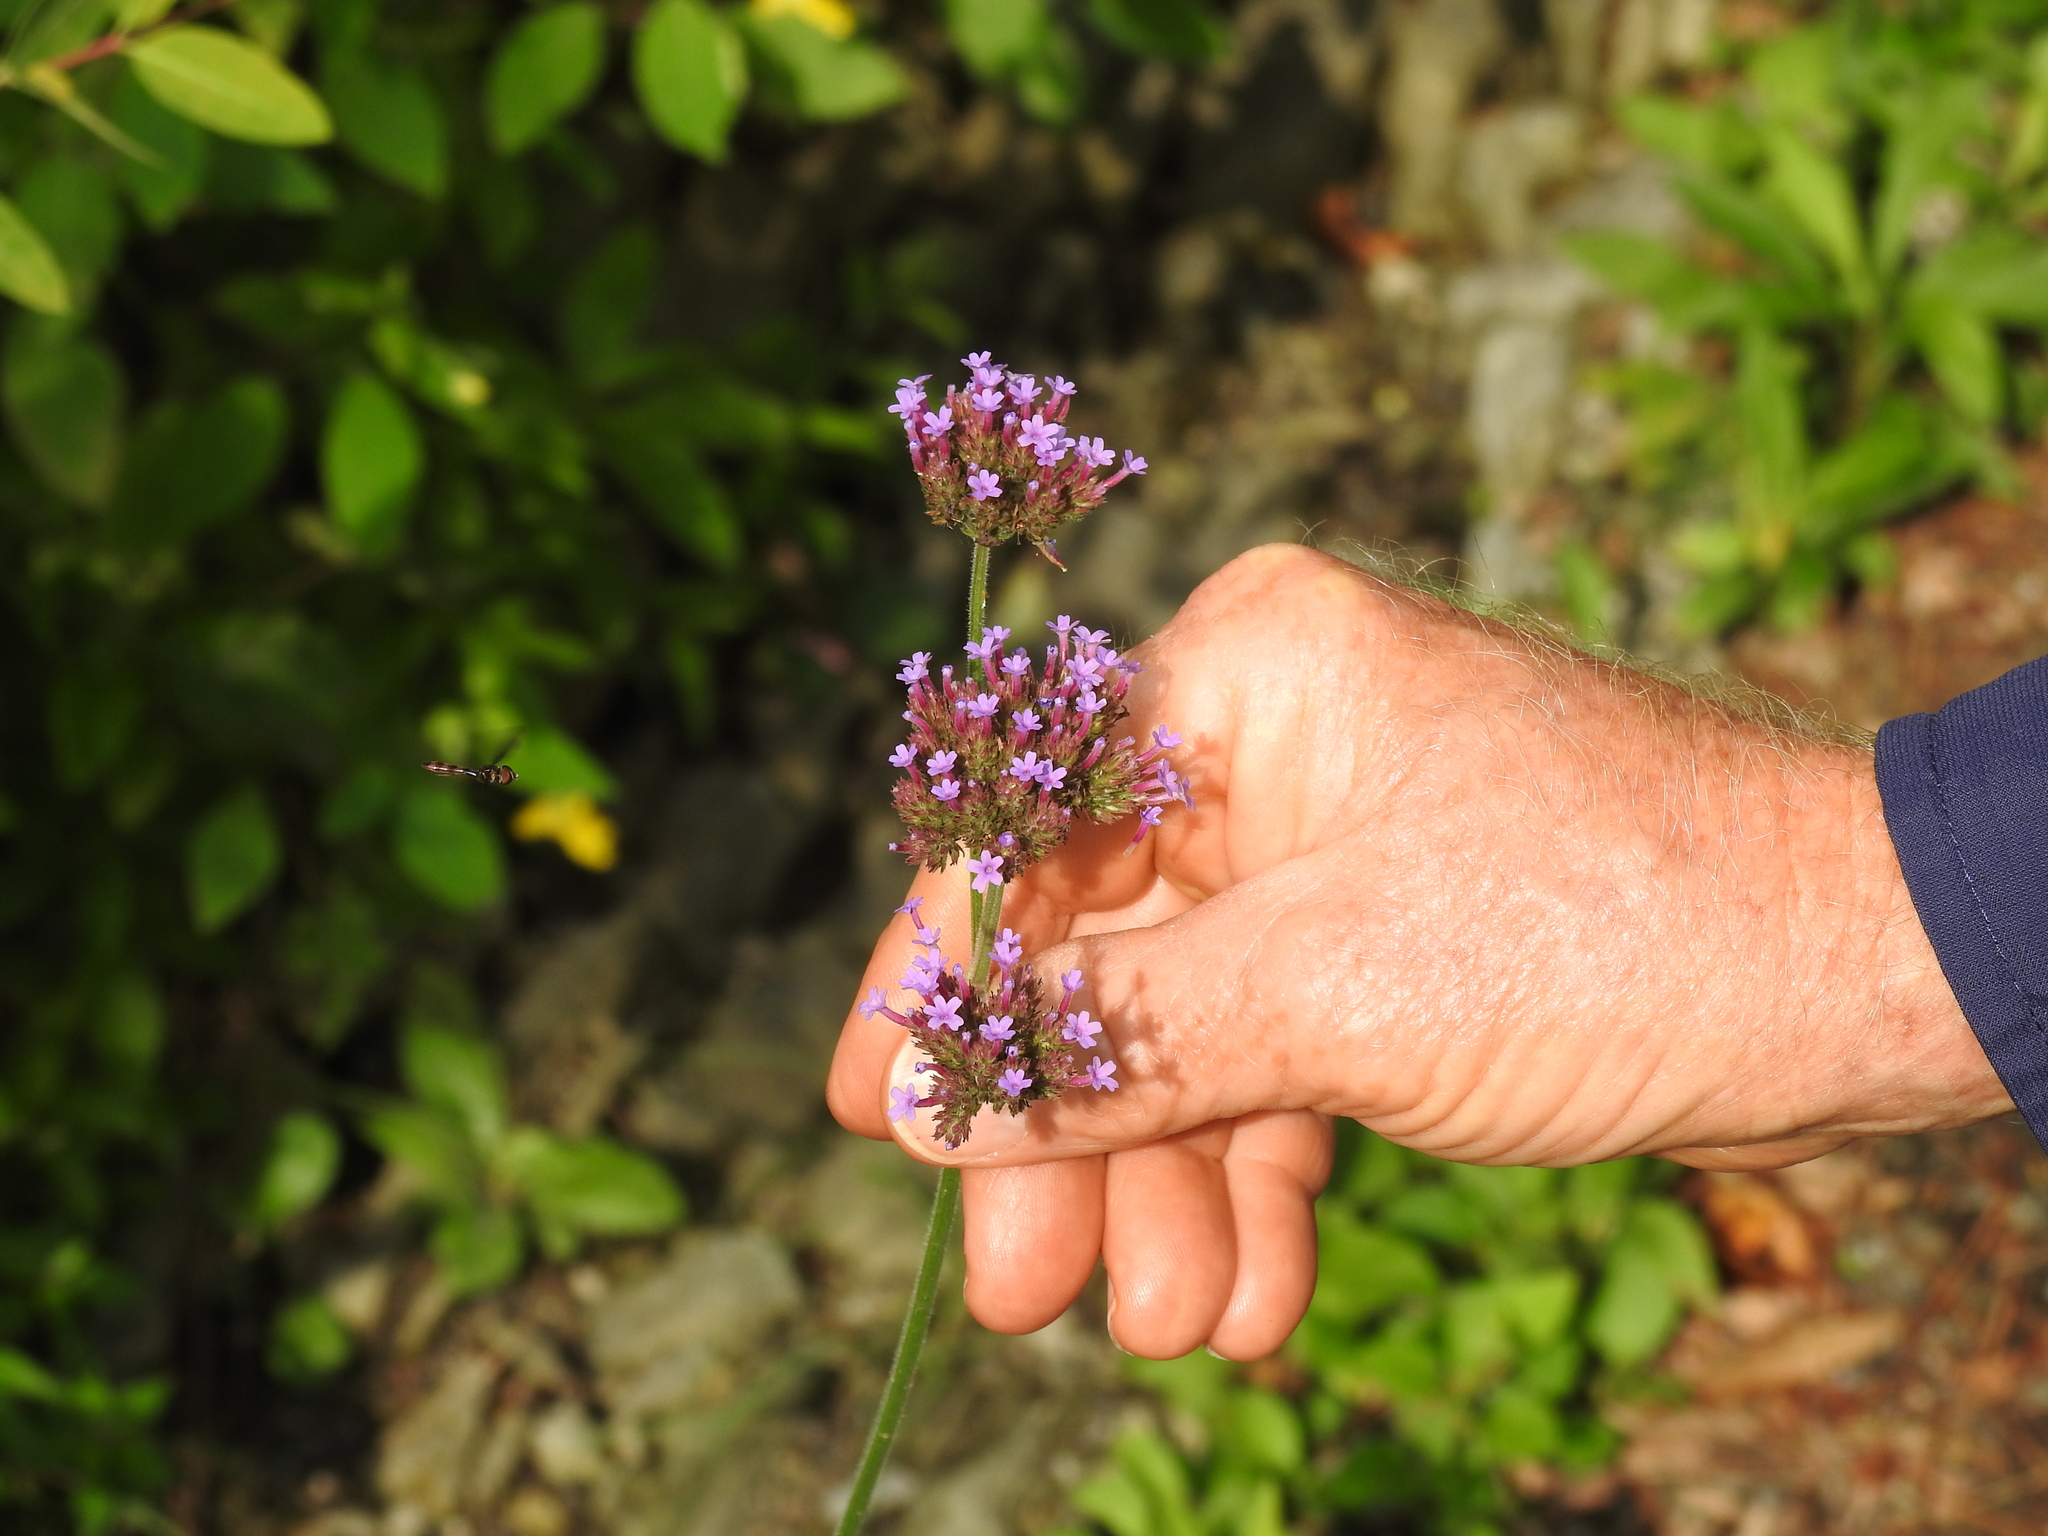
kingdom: Plantae
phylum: Tracheophyta
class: Magnoliopsida
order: Lamiales
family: Verbenaceae
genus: Verbena
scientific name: Verbena bonariensis
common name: Purpletop vervain
